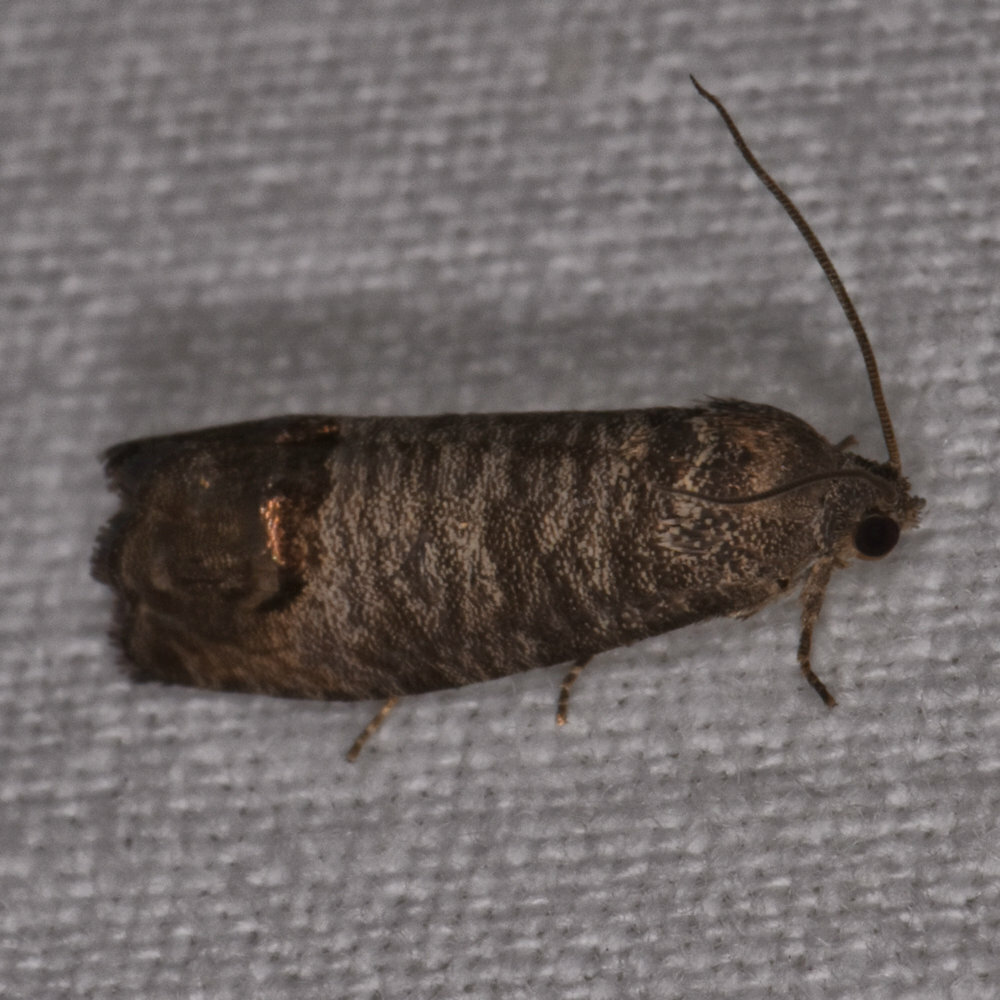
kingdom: Animalia
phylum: Arthropoda
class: Insecta
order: Lepidoptera
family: Tortricidae
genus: Cydia
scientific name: Cydia pomonella
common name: Codling moth
